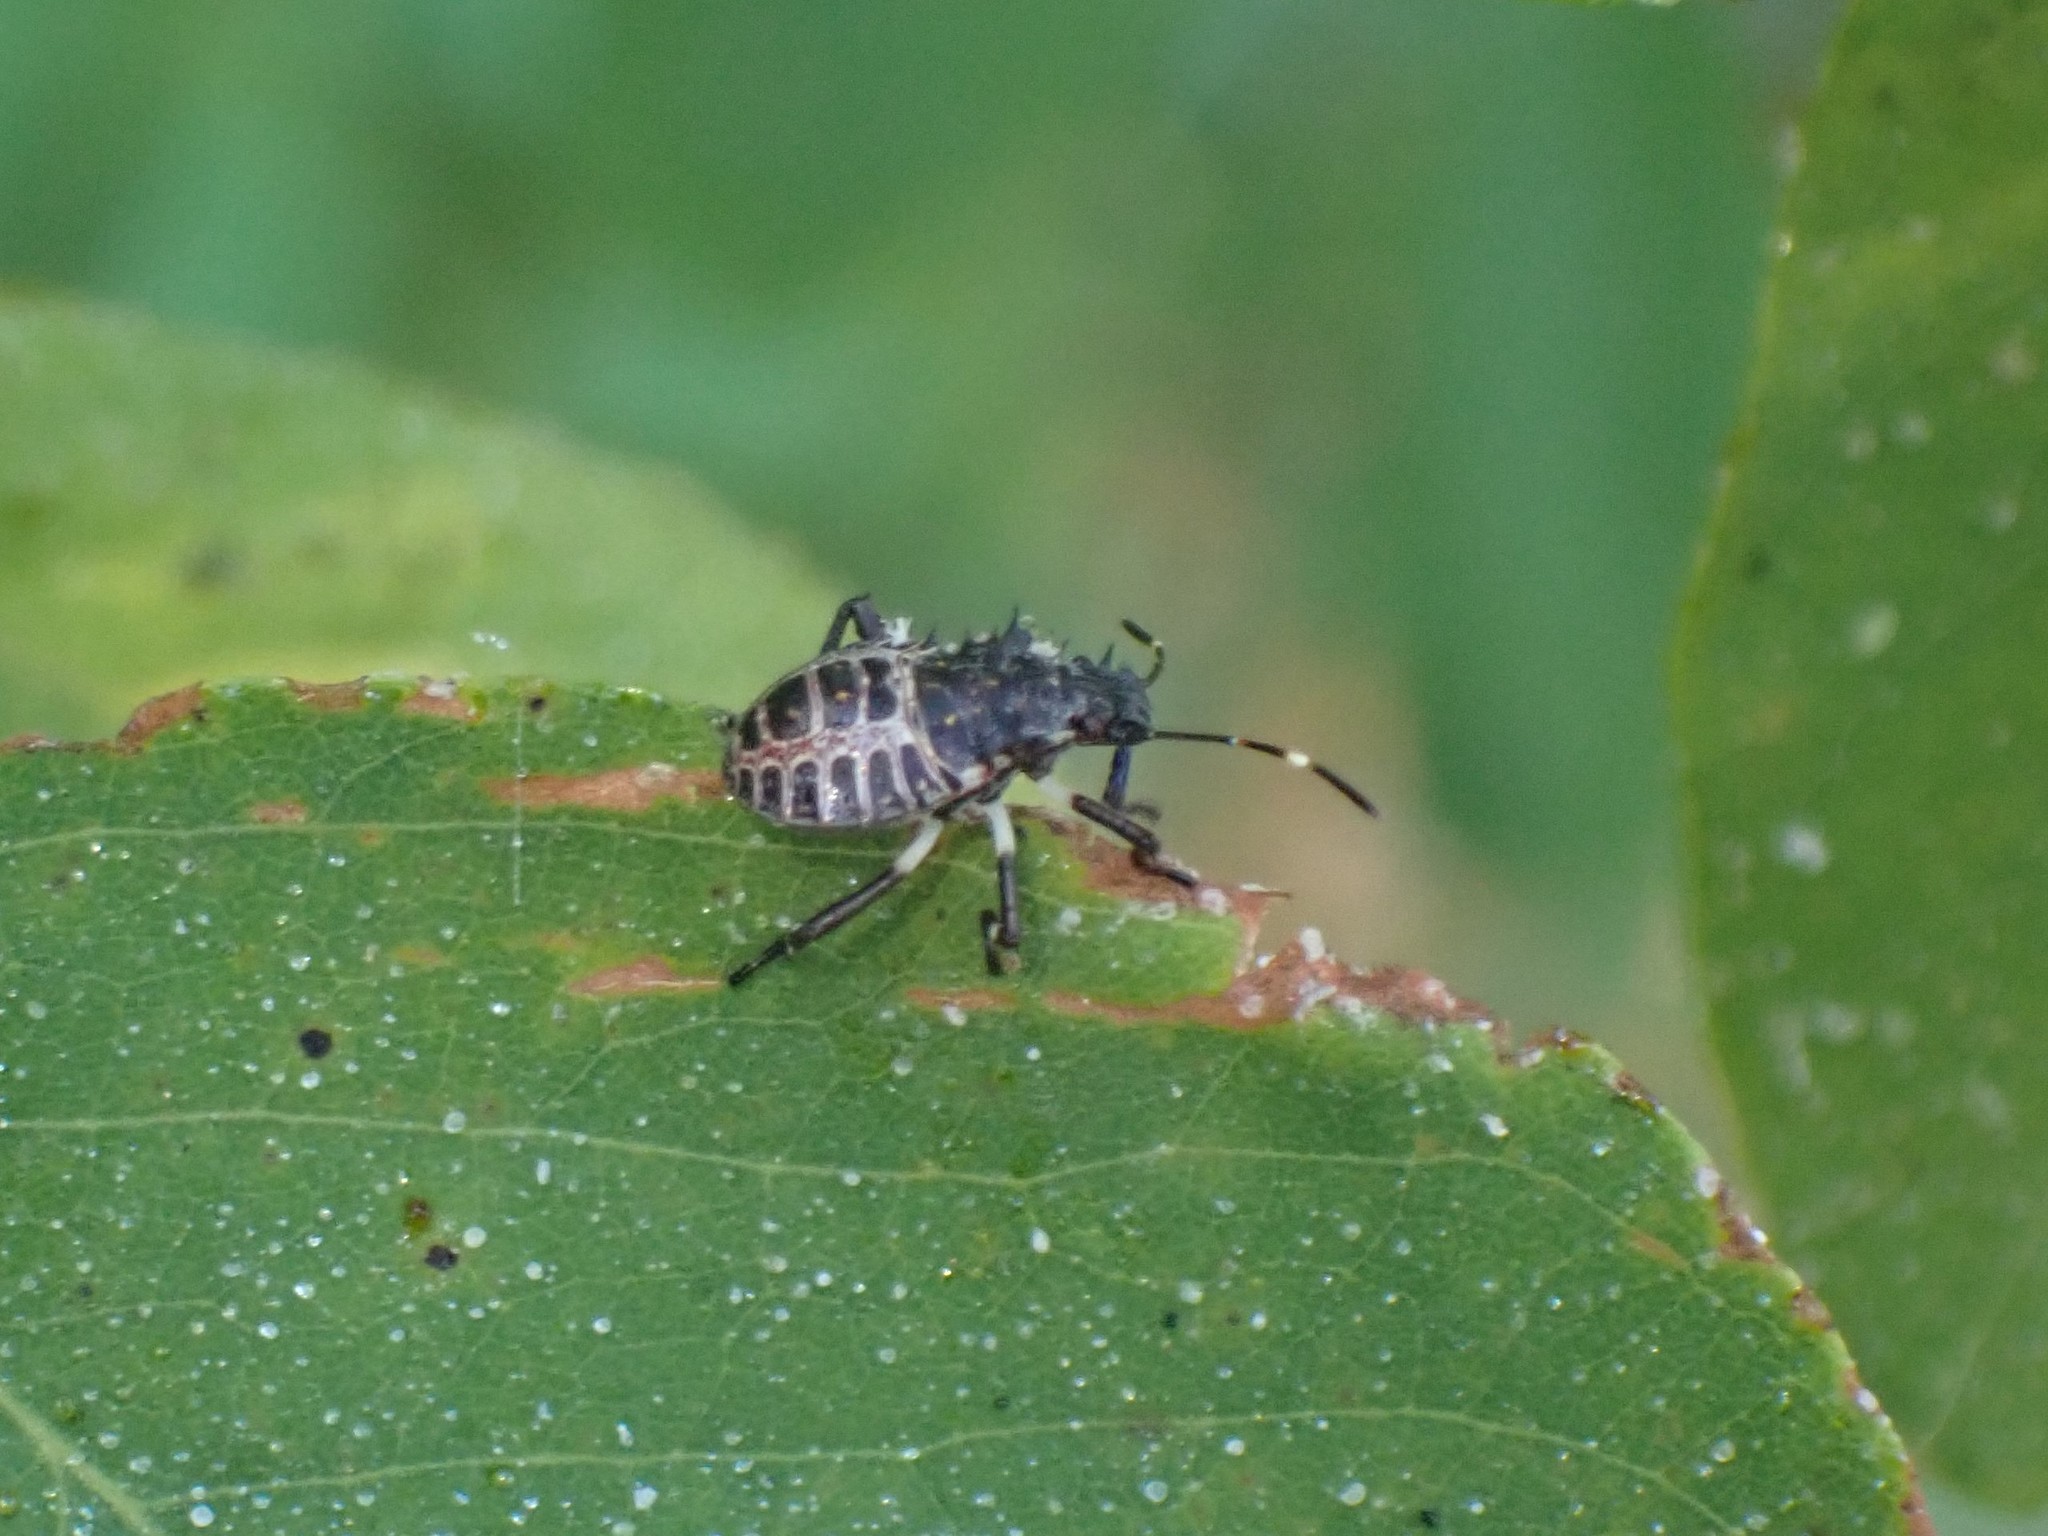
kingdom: Animalia
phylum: Arthropoda
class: Insecta
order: Hemiptera
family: Pentatomidae
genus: Halyomorpha
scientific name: Halyomorpha halys
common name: Brown marmorated stink bug
